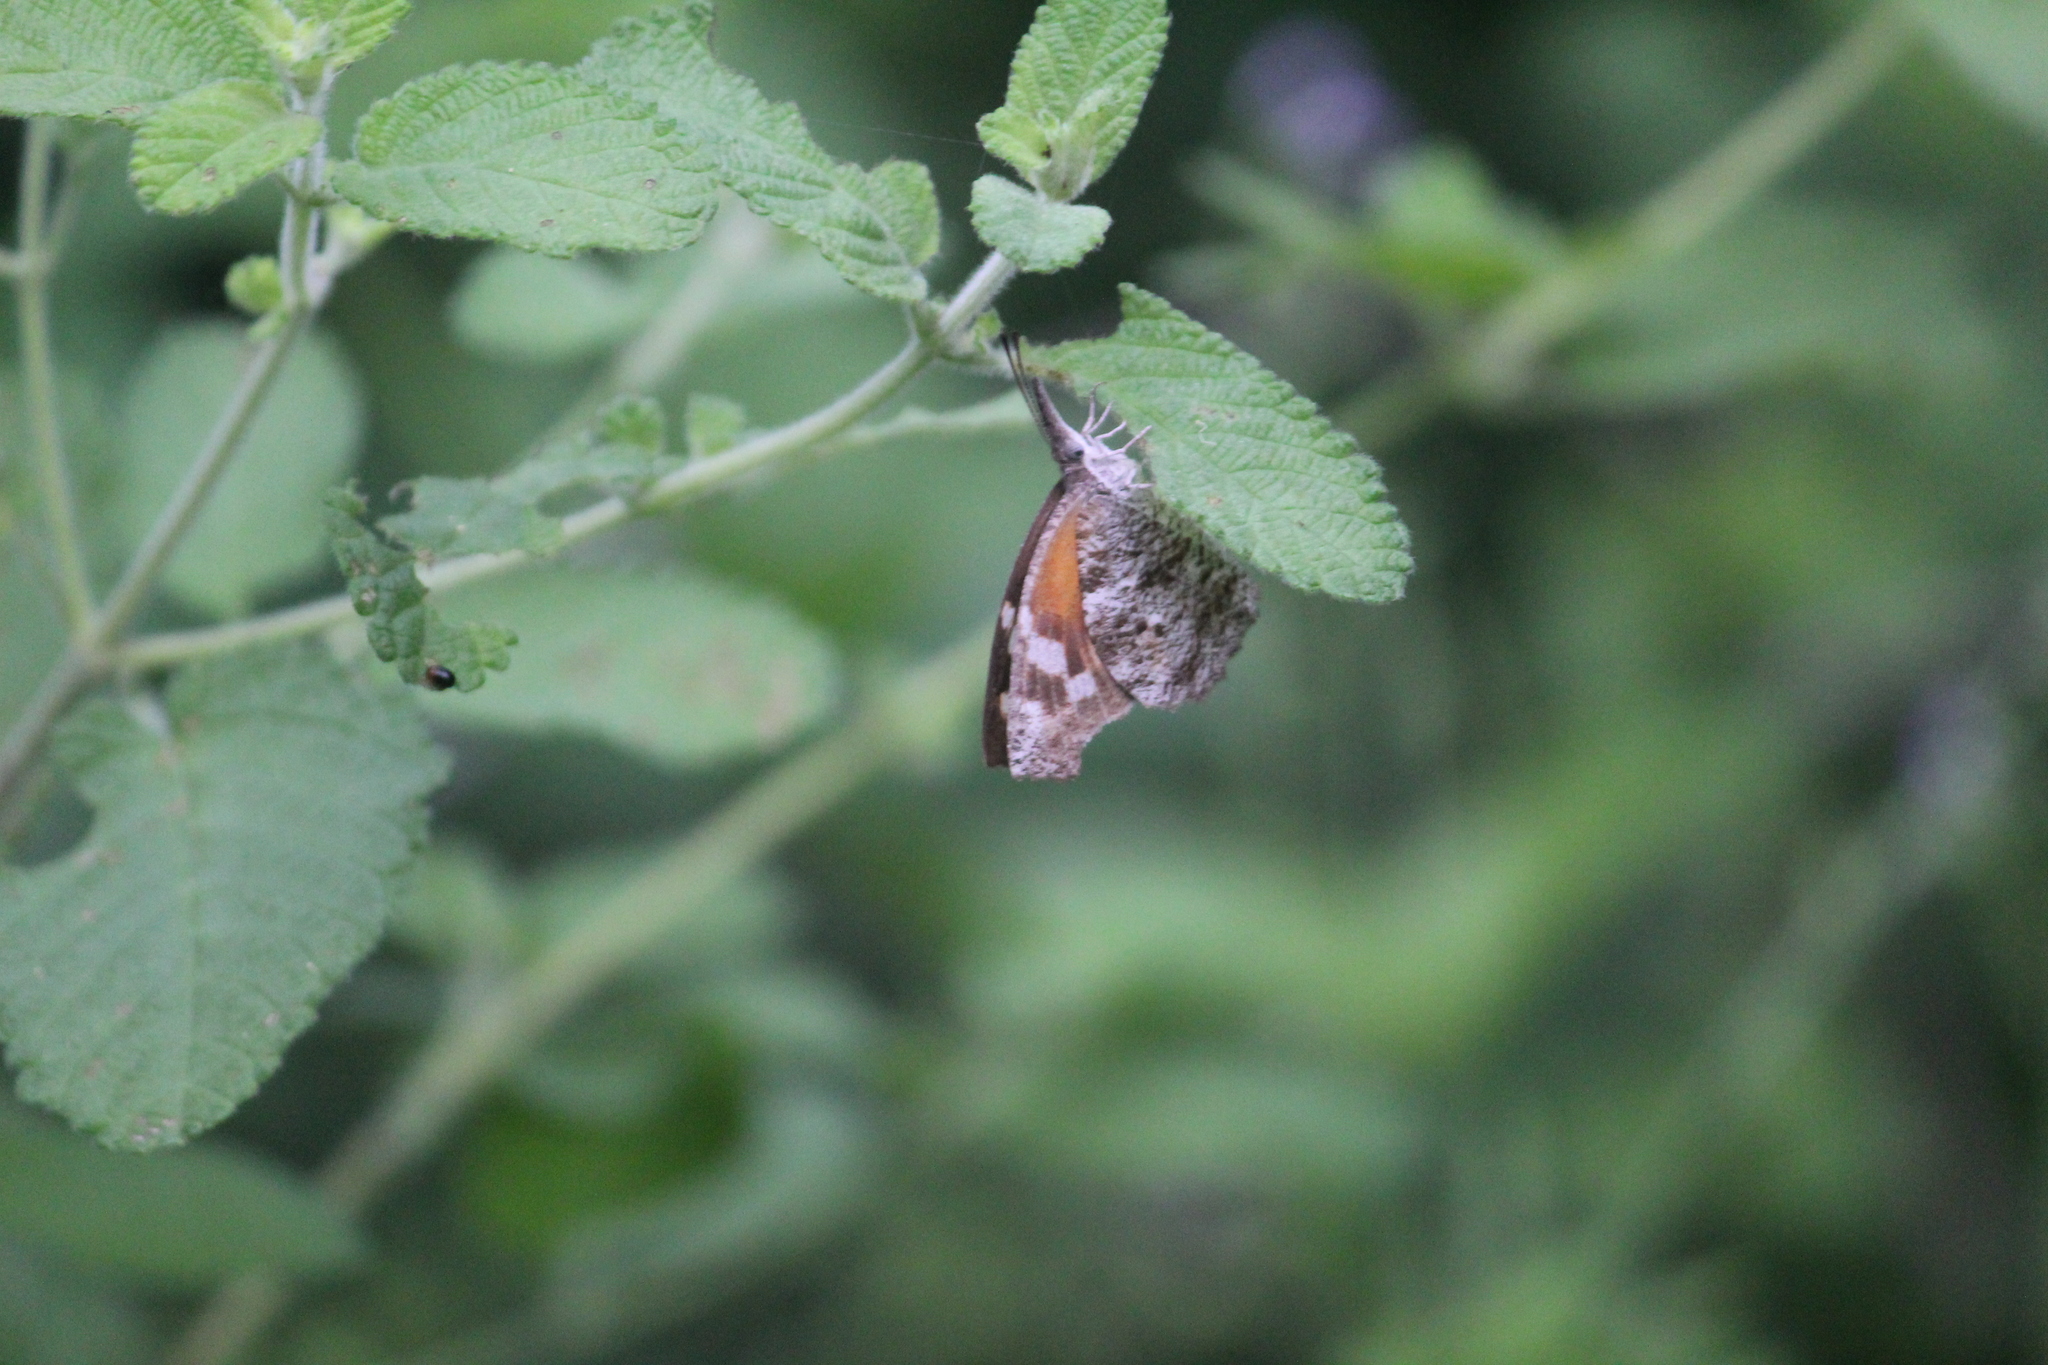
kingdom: Animalia
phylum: Arthropoda
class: Insecta
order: Lepidoptera
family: Nymphalidae
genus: Libytheana
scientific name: Libytheana carinenta
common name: American snout
